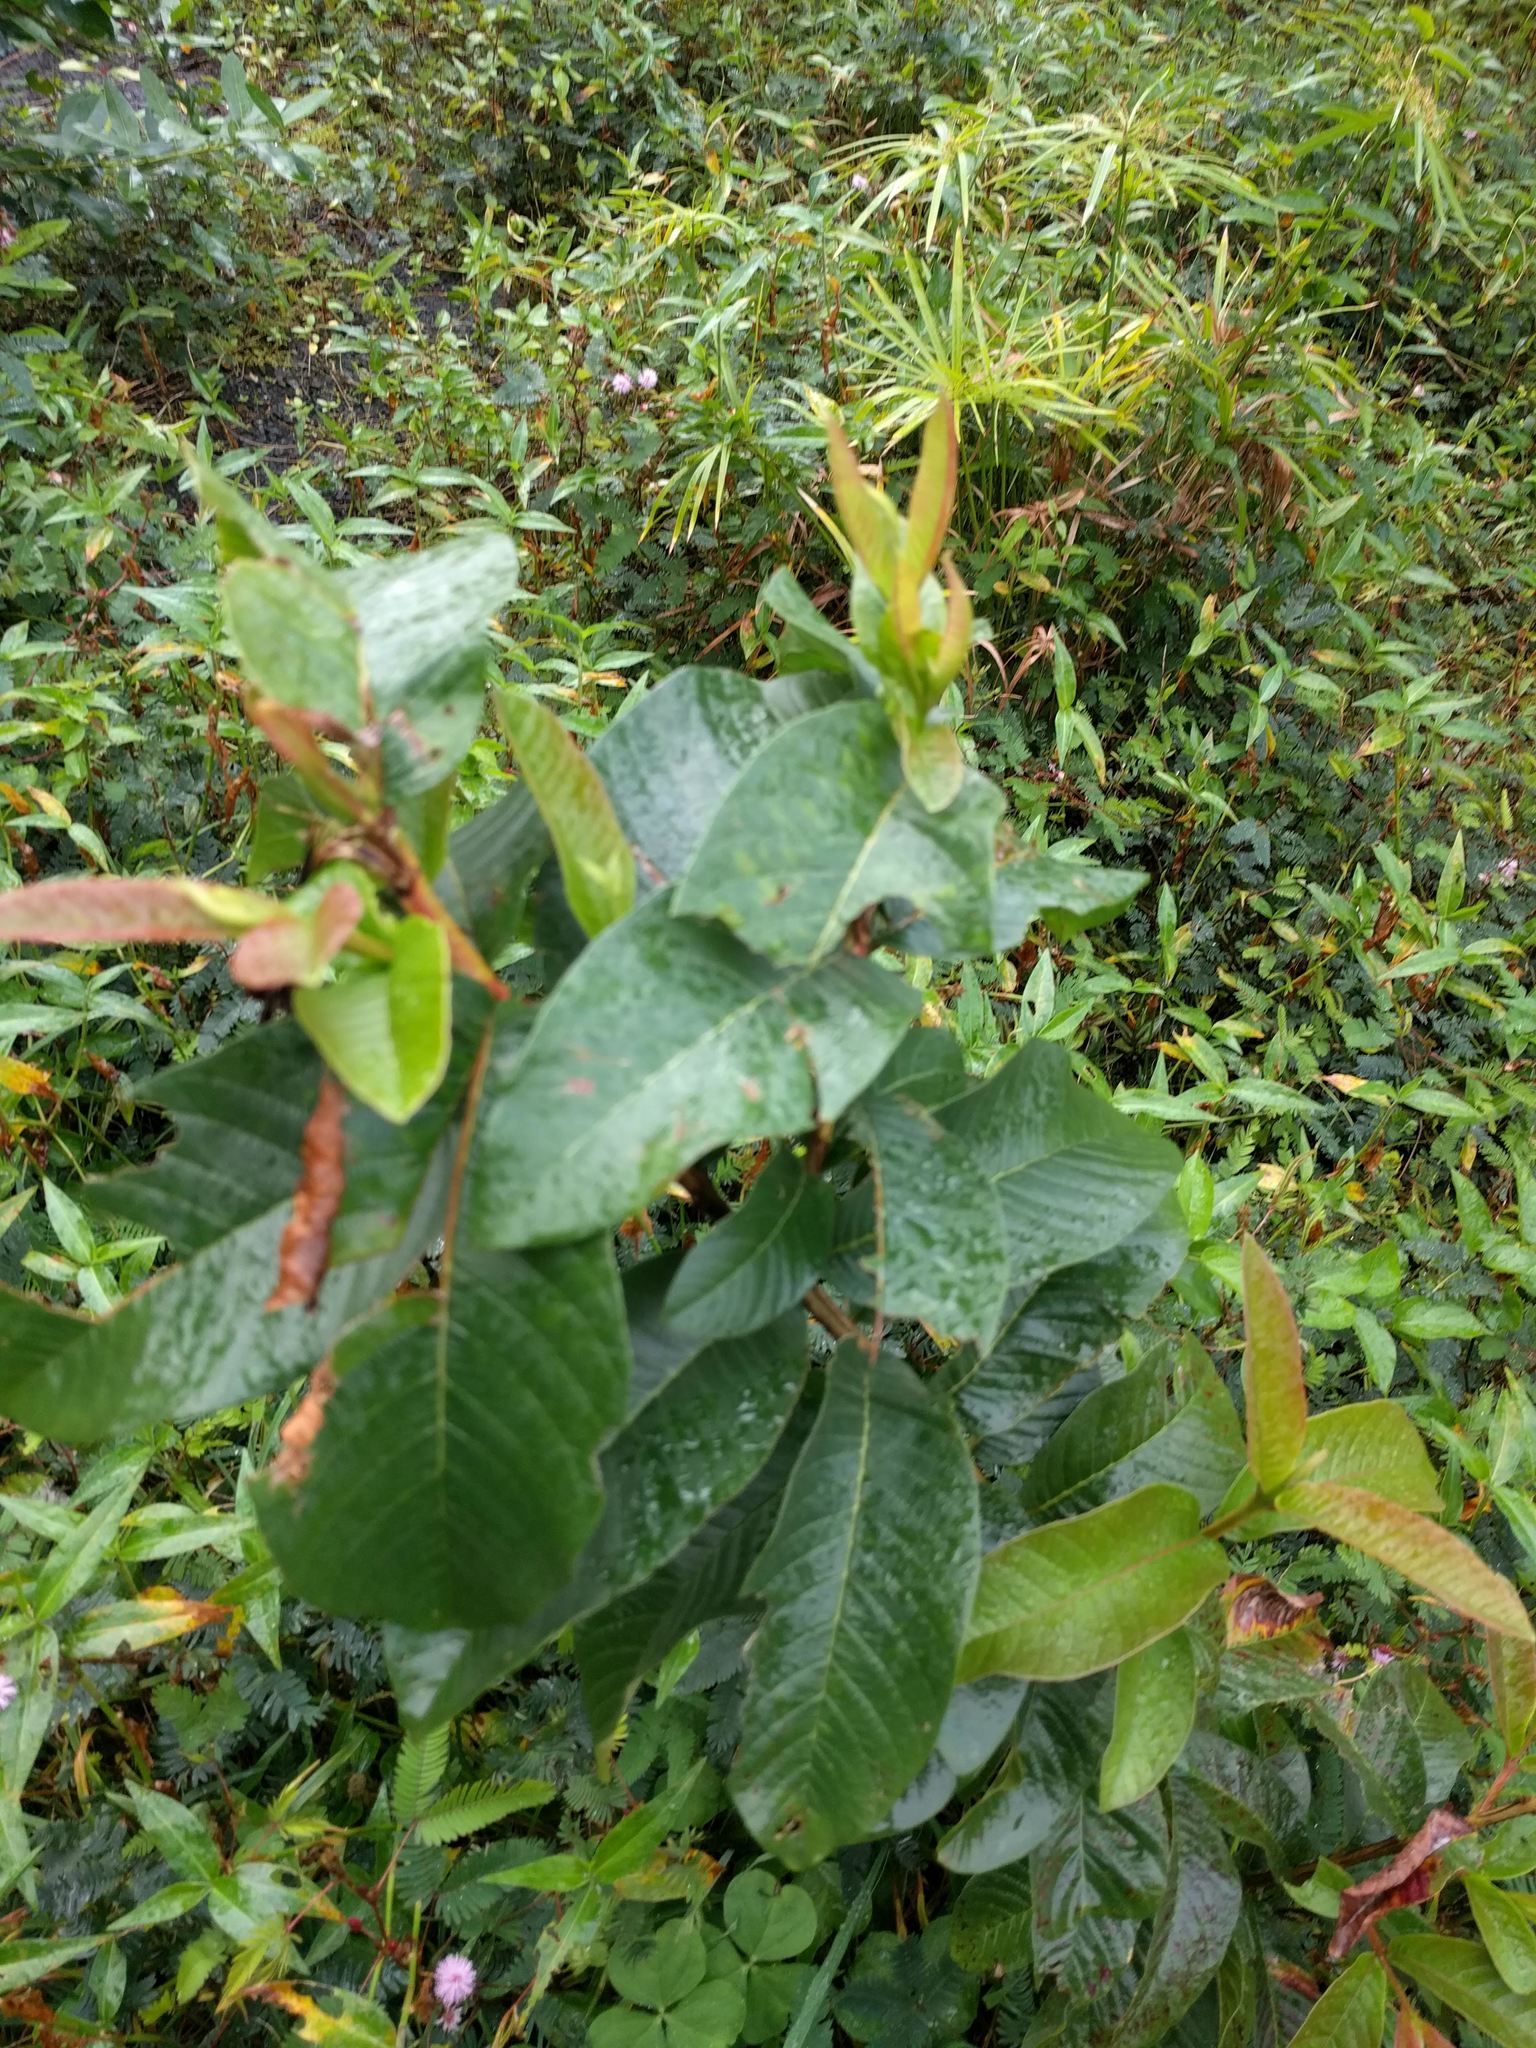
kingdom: Plantae
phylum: Tracheophyta
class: Magnoliopsida
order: Myrtales
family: Myrtaceae
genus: Psidium
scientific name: Psidium guajava
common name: Guava
